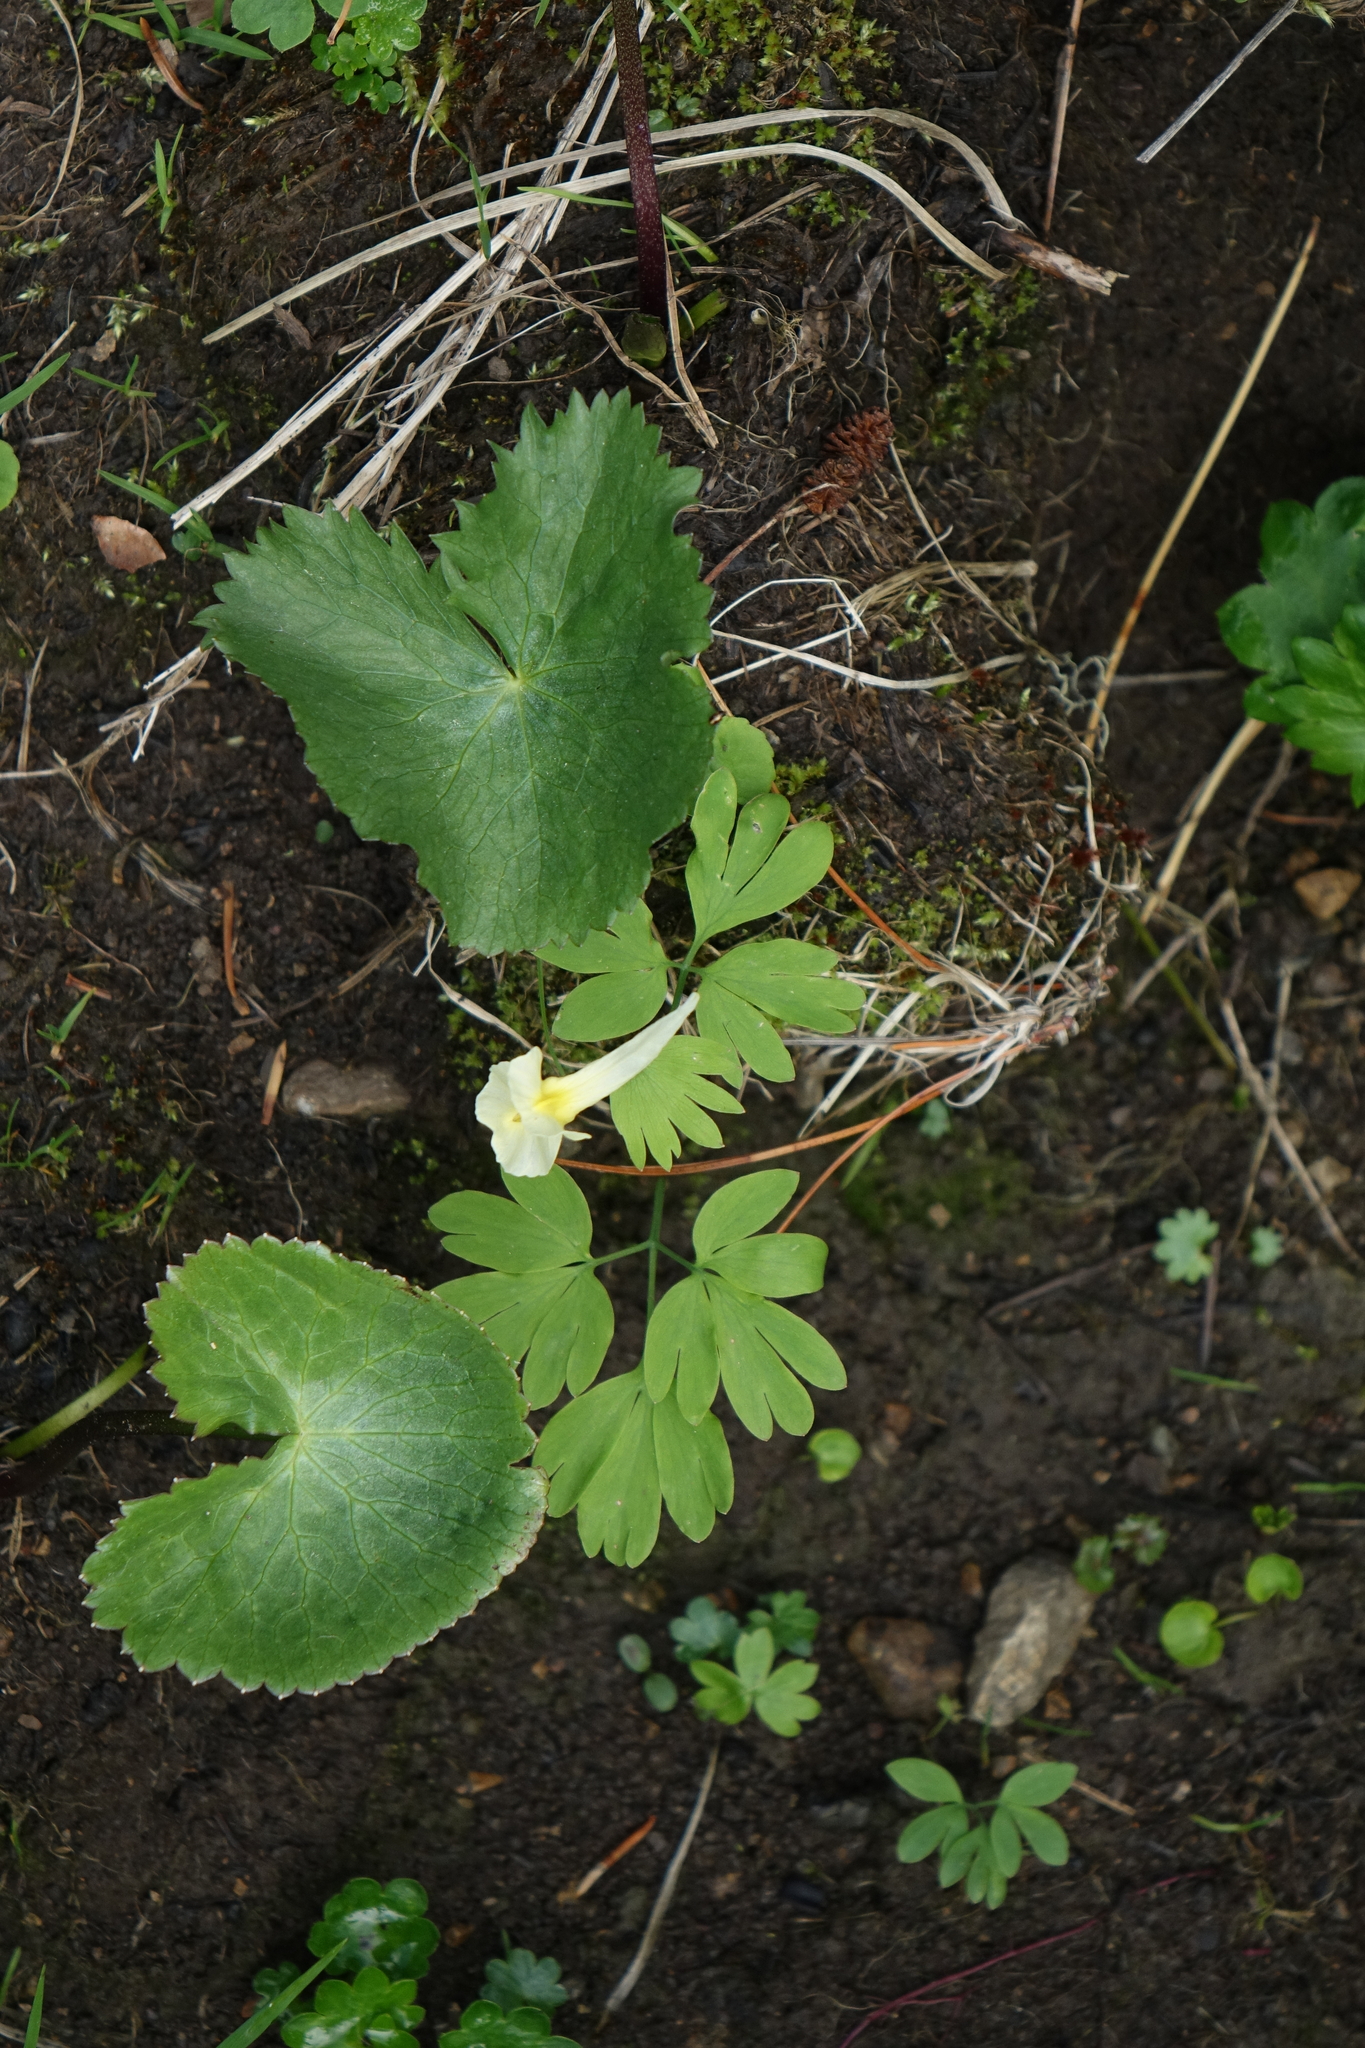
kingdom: Plantae
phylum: Tracheophyta
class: Magnoliopsida
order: Ranunculales
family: Ranunculaceae
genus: Caltha
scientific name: Caltha palustris
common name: Marsh marigold
